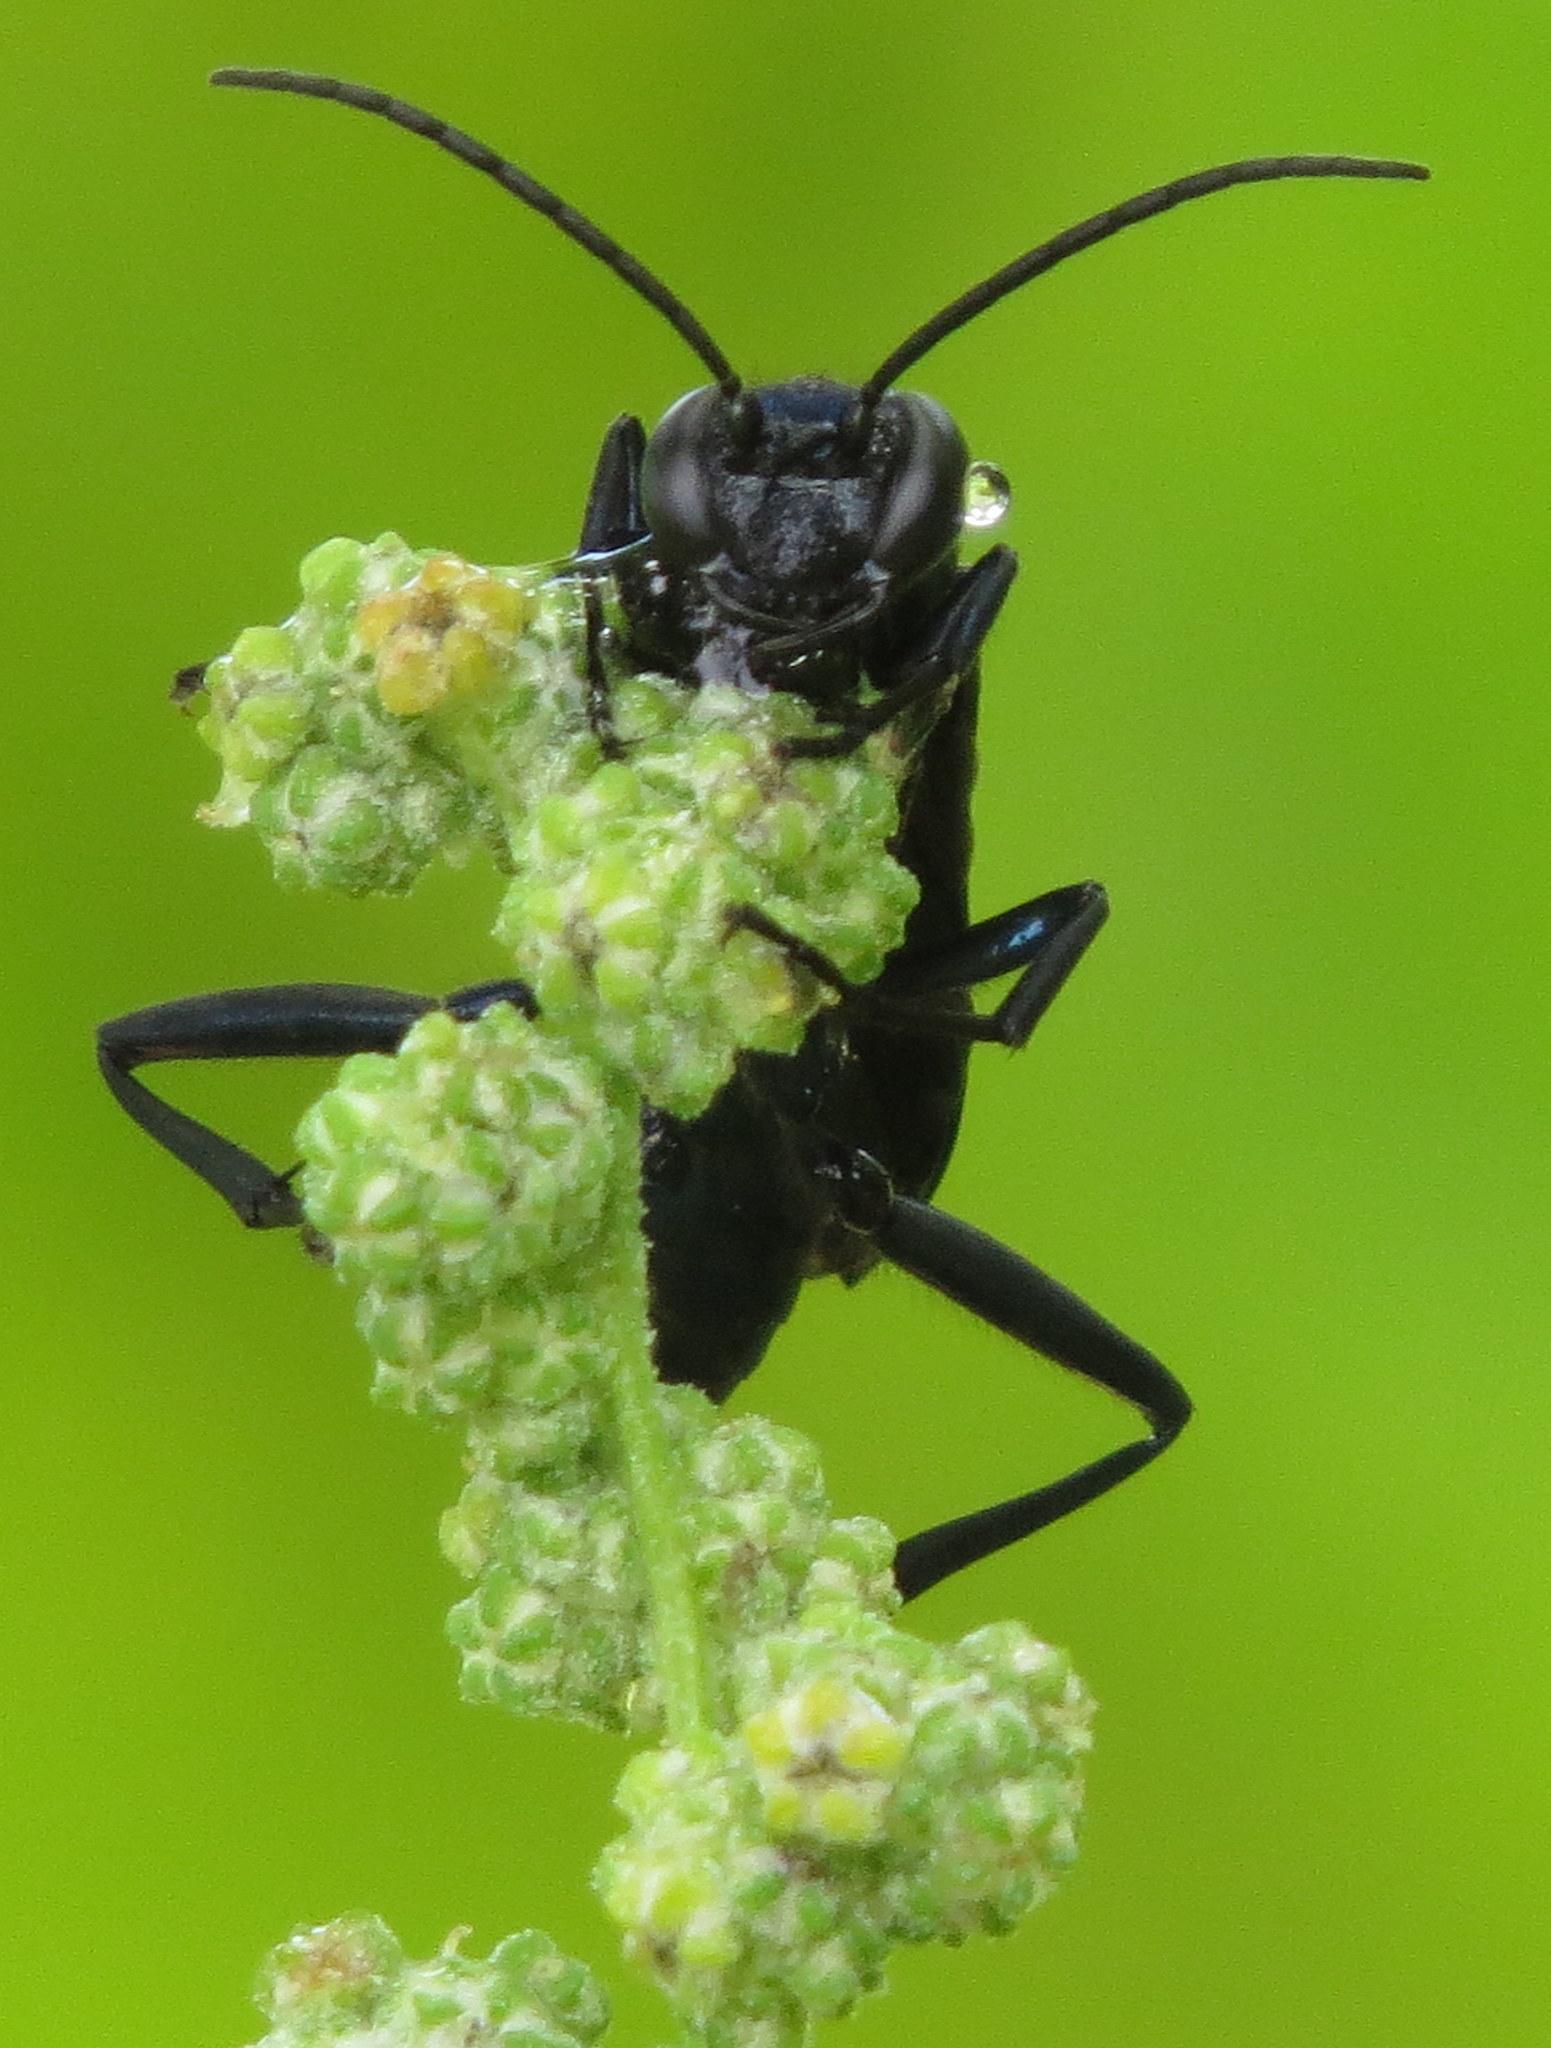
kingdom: Animalia
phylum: Arthropoda
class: Insecta
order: Hymenoptera
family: Sphecidae
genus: Chalybion
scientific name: Chalybion californicum
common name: Mud dauber
